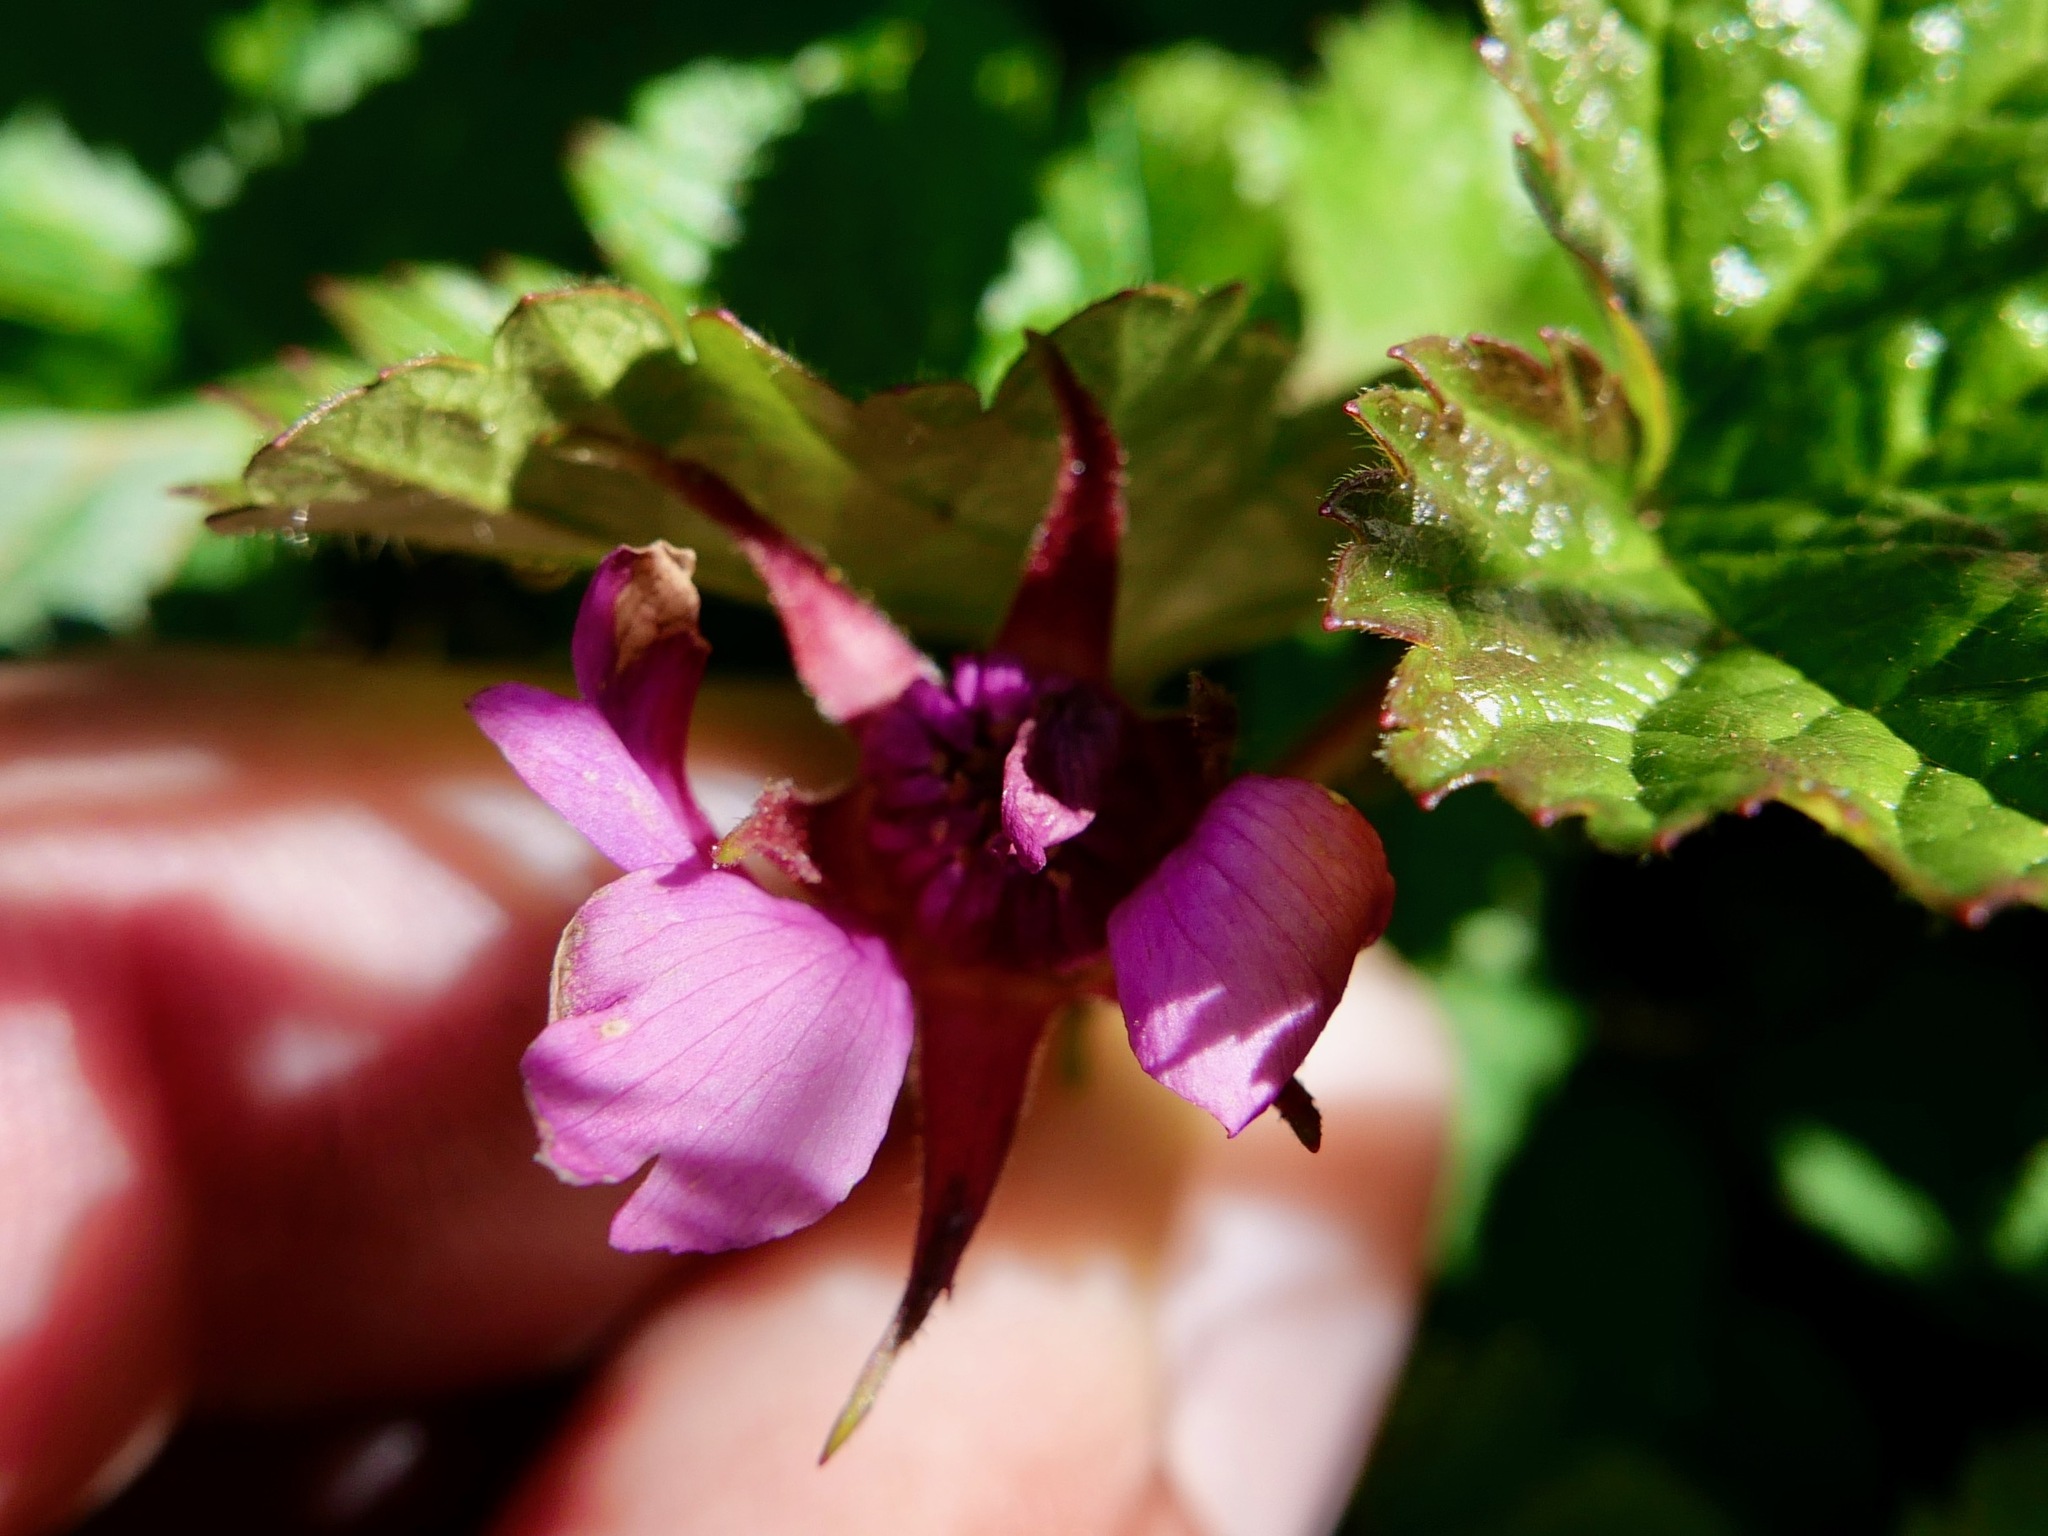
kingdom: Plantae
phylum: Tracheophyta
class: Magnoliopsida
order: Rosales
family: Rosaceae
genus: Rubus
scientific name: Rubus arcticus
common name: Arctic bramble
